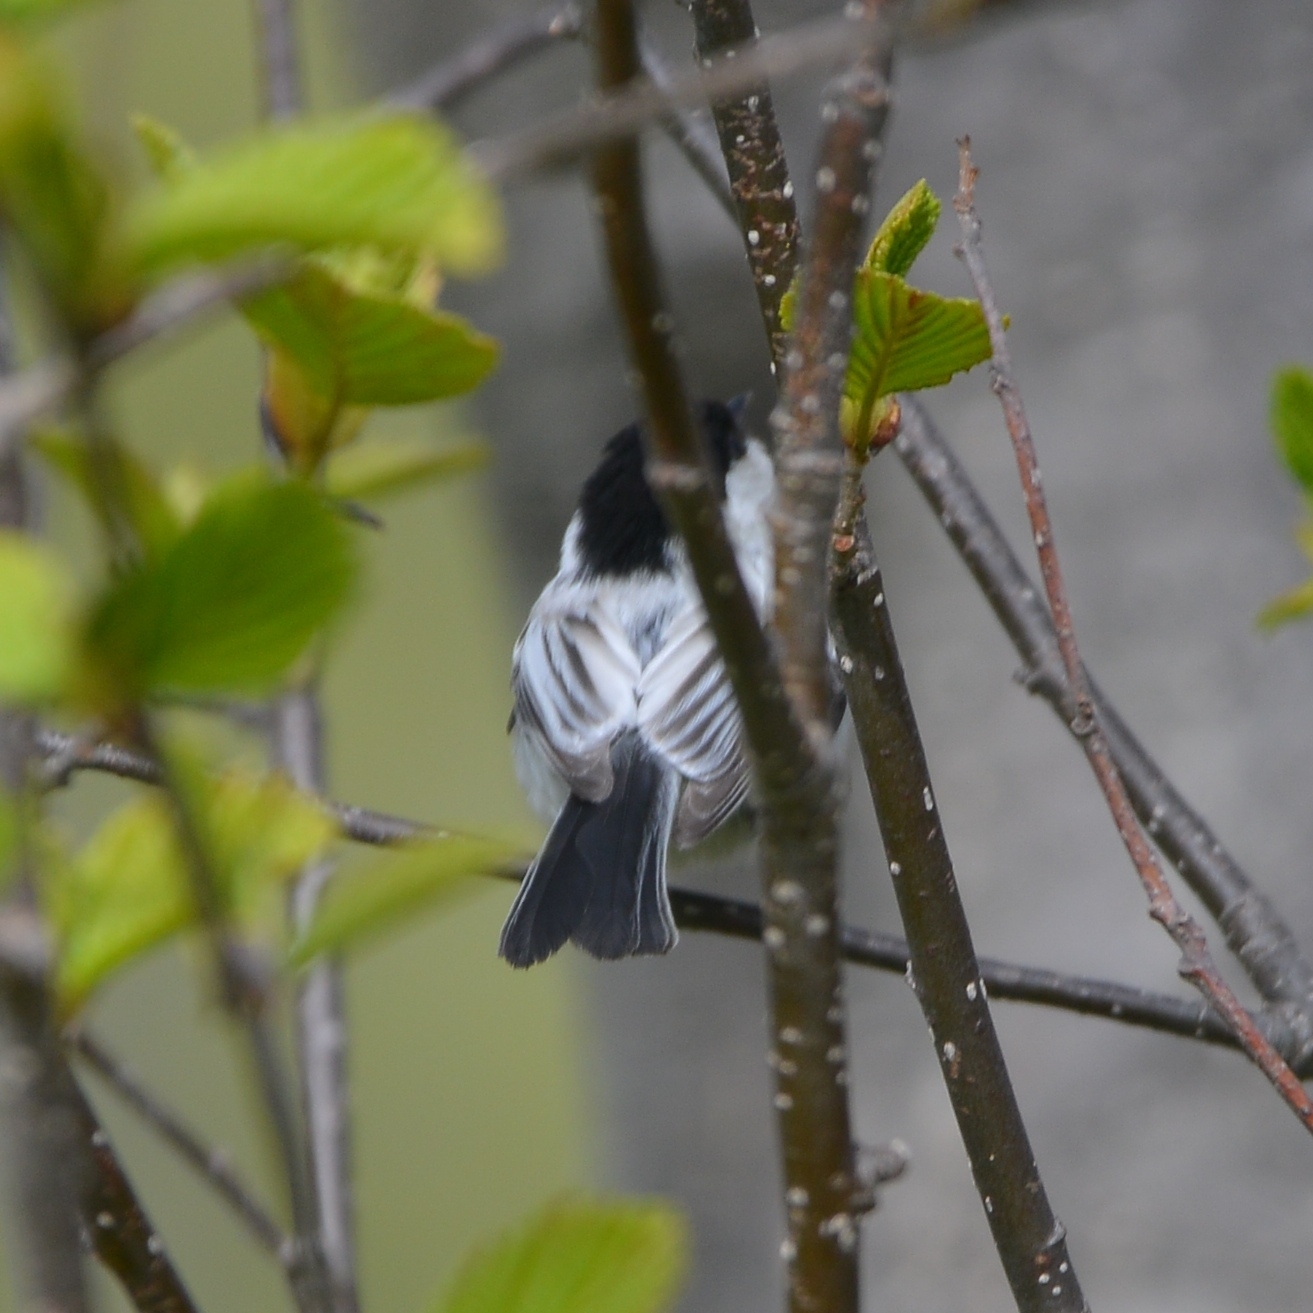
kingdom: Animalia
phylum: Chordata
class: Aves
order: Passeriformes
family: Paridae
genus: Poecile
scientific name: Poecile montanus
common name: Willow tit
